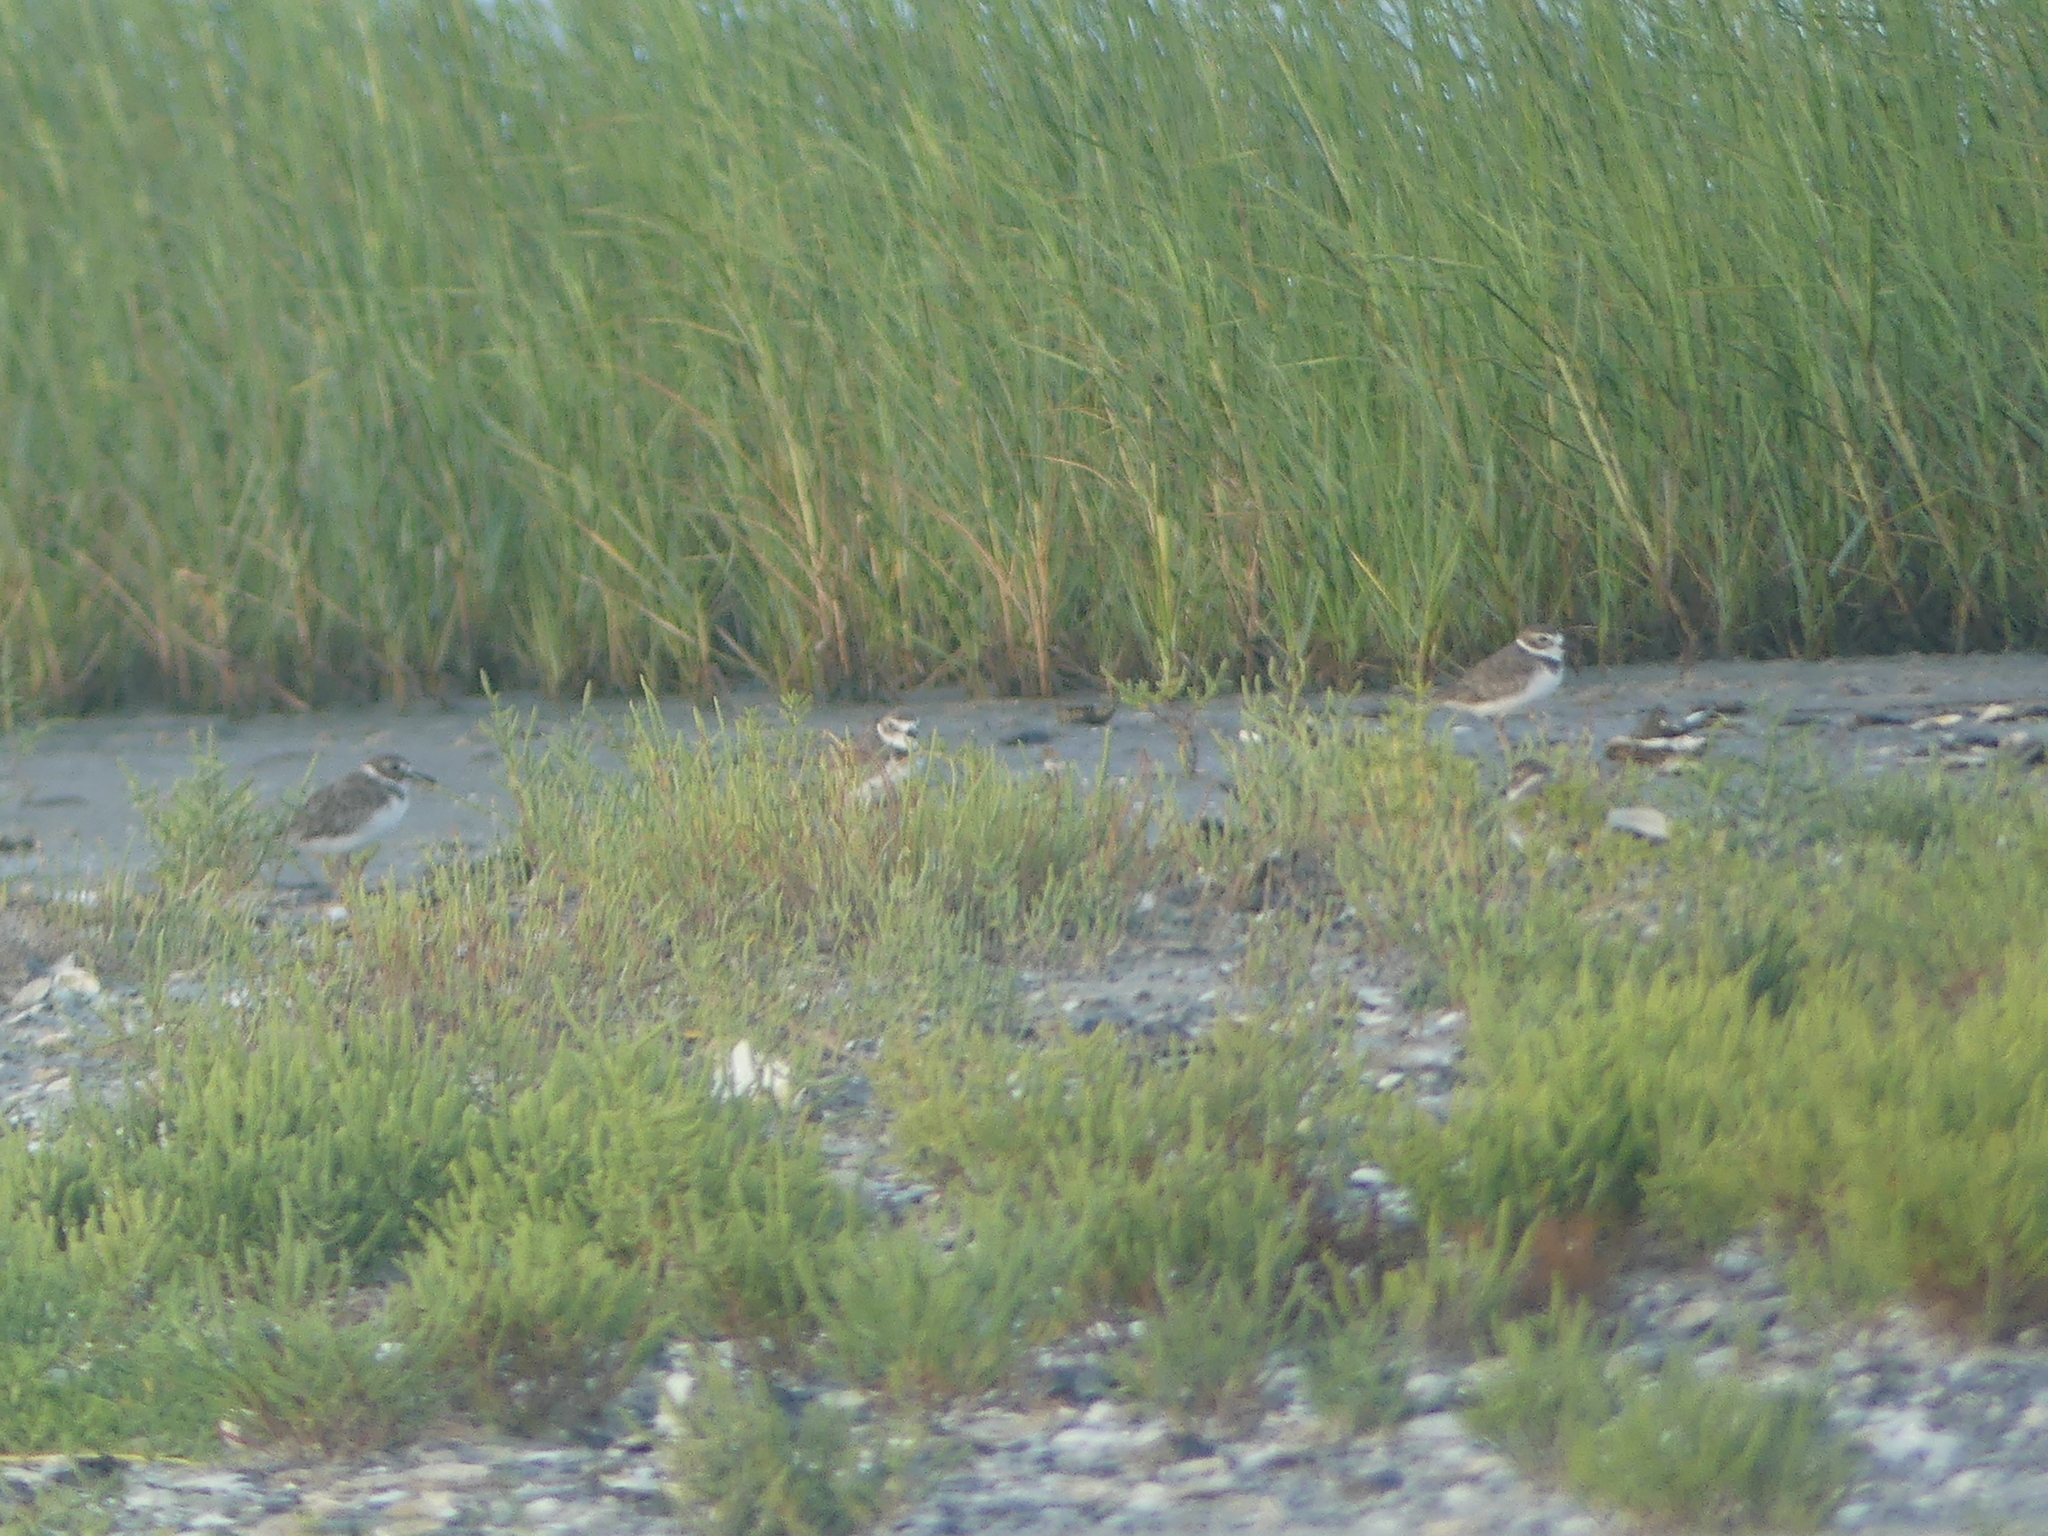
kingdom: Animalia
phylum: Chordata
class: Aves
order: Charadriiformes
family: Charadriidae
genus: Anarhynchus
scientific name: Anarhynchus
